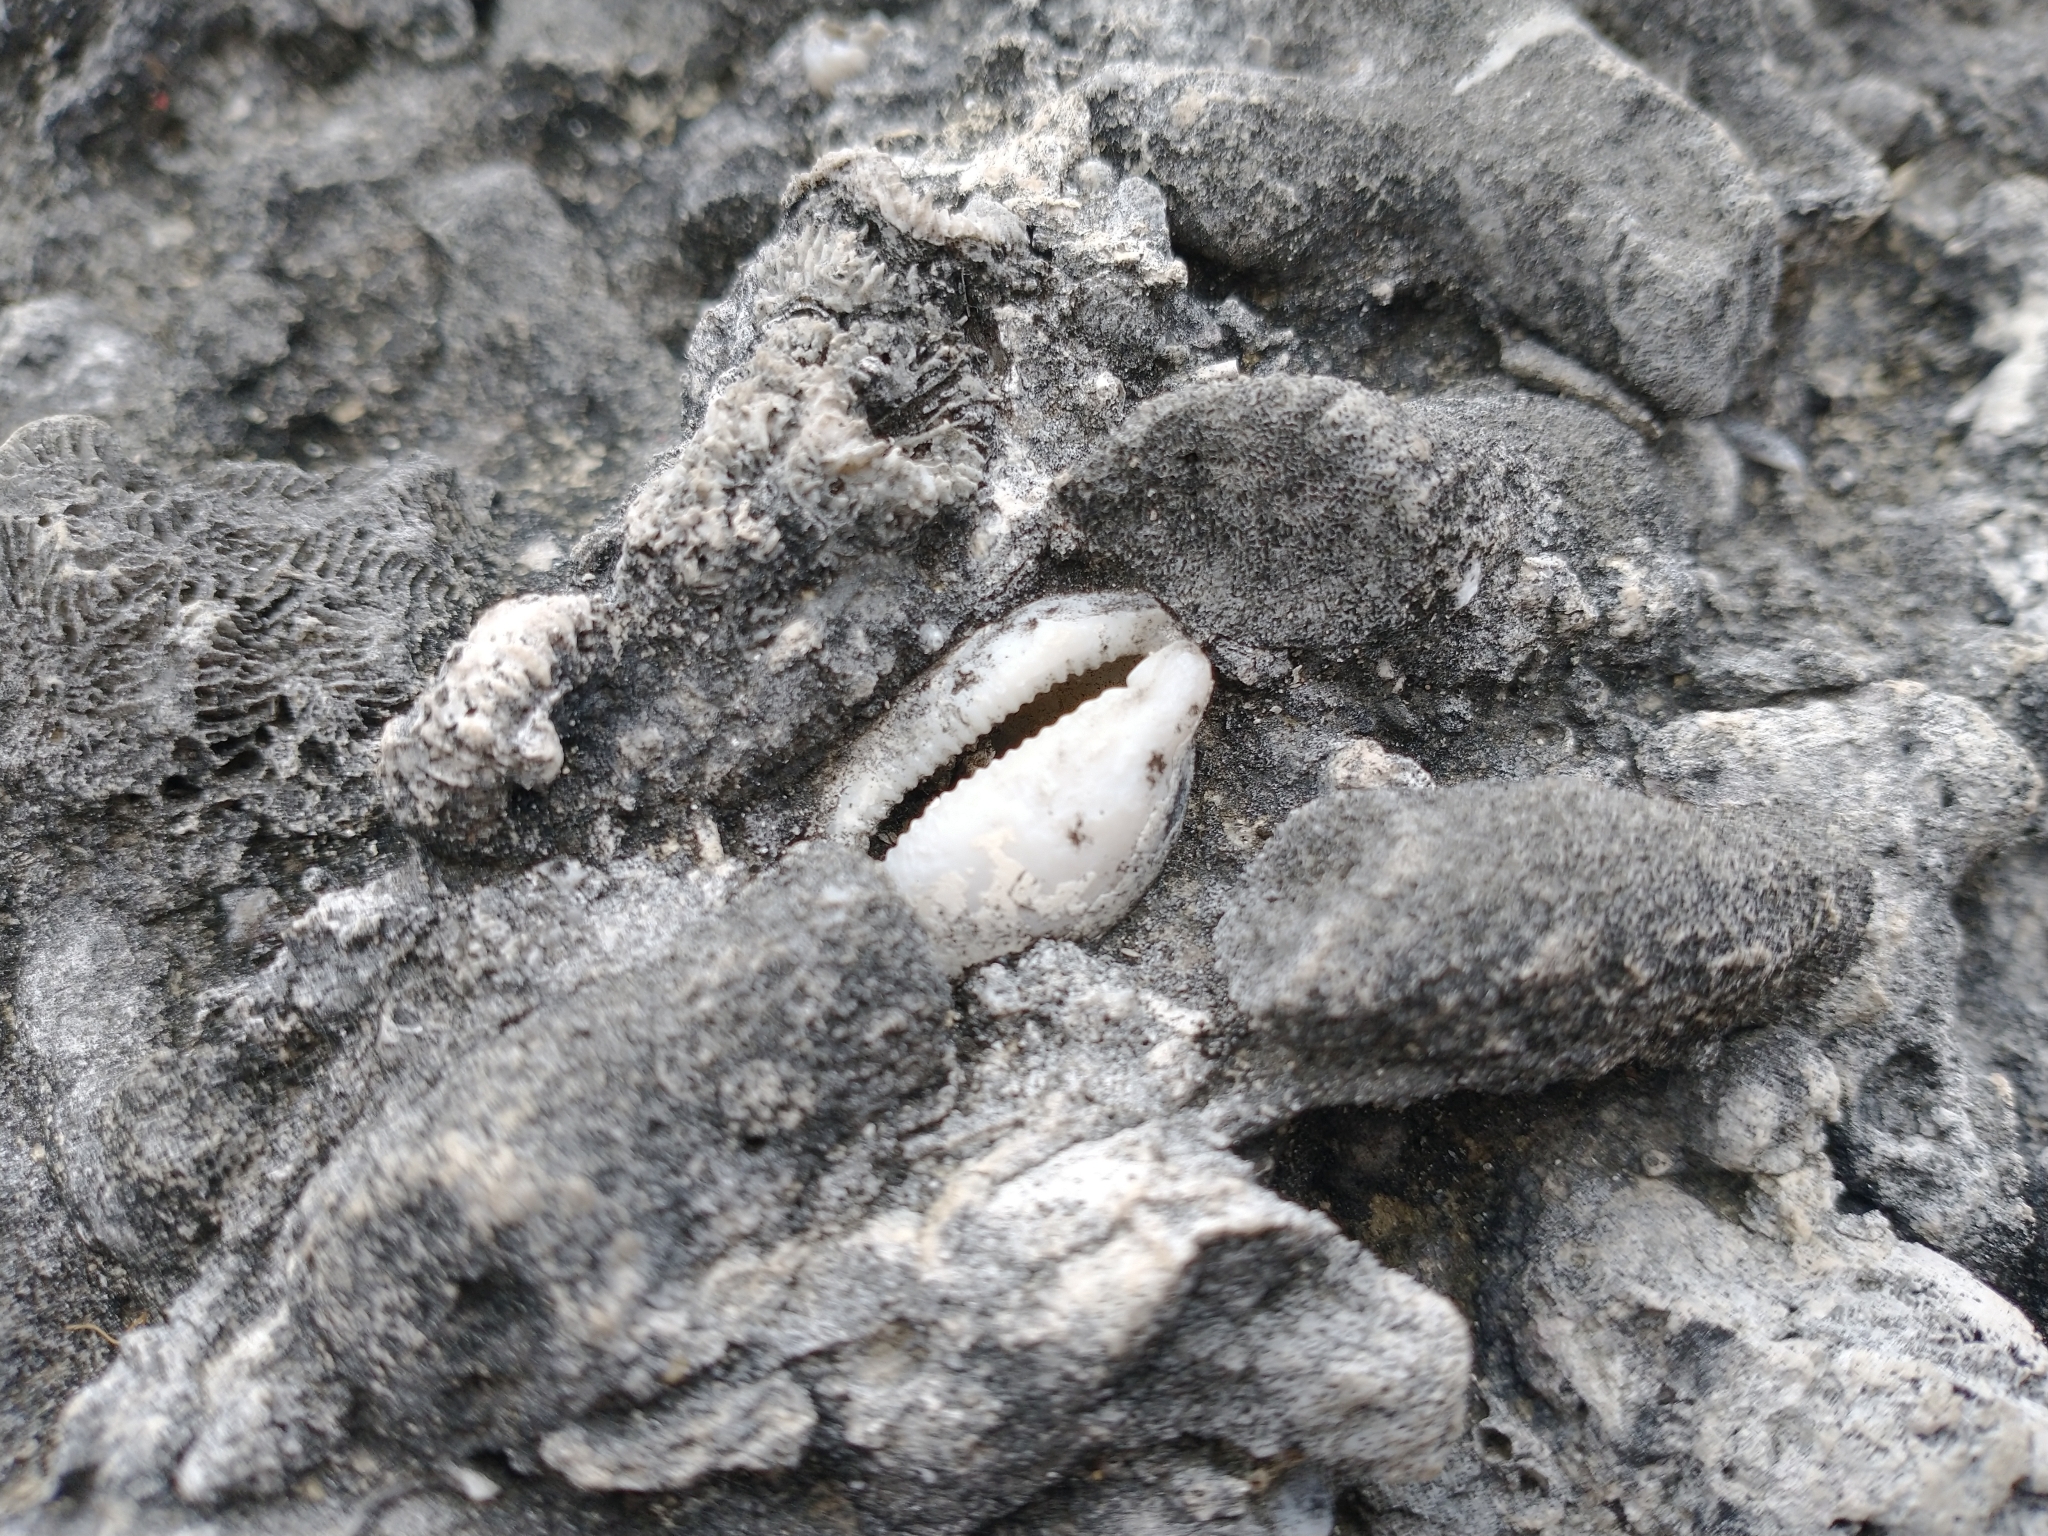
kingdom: Animalia
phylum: Mollusca
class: Gastropoda
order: Littorinimorpha
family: Cypraeidae
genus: Luria
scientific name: Luria cinerea
